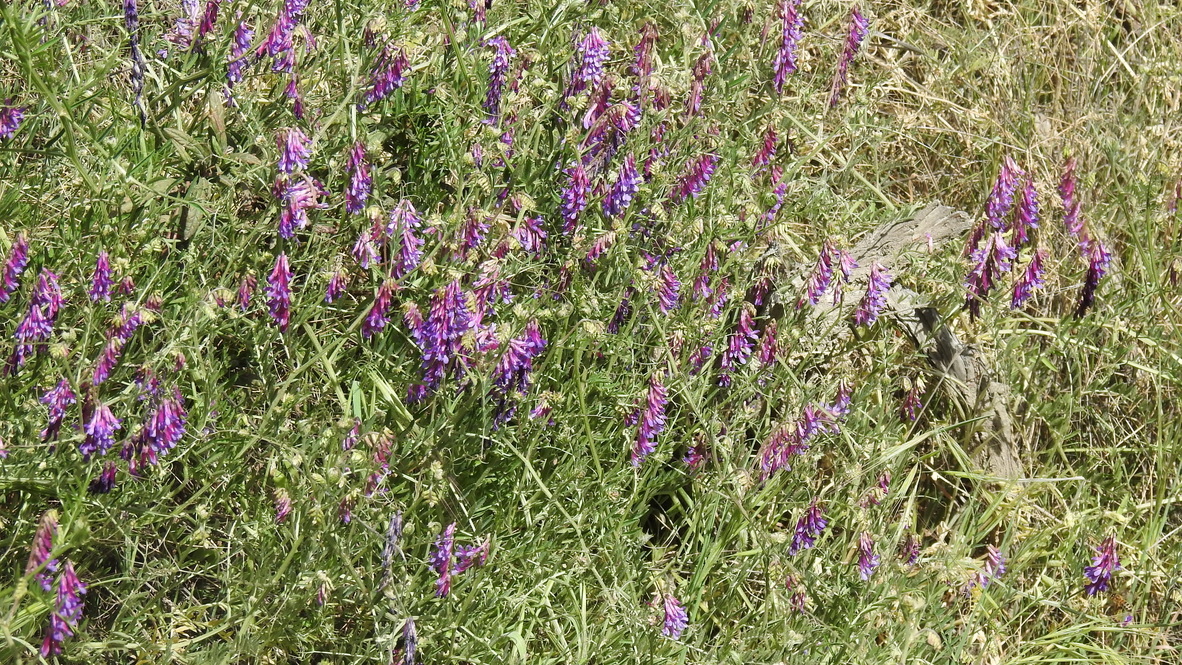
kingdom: Plantae
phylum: Tracheophyta
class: Magnoliopsida
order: Fabales
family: Fabaceae
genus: Vicia
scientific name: Vicia villosa
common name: Fodder vetch
